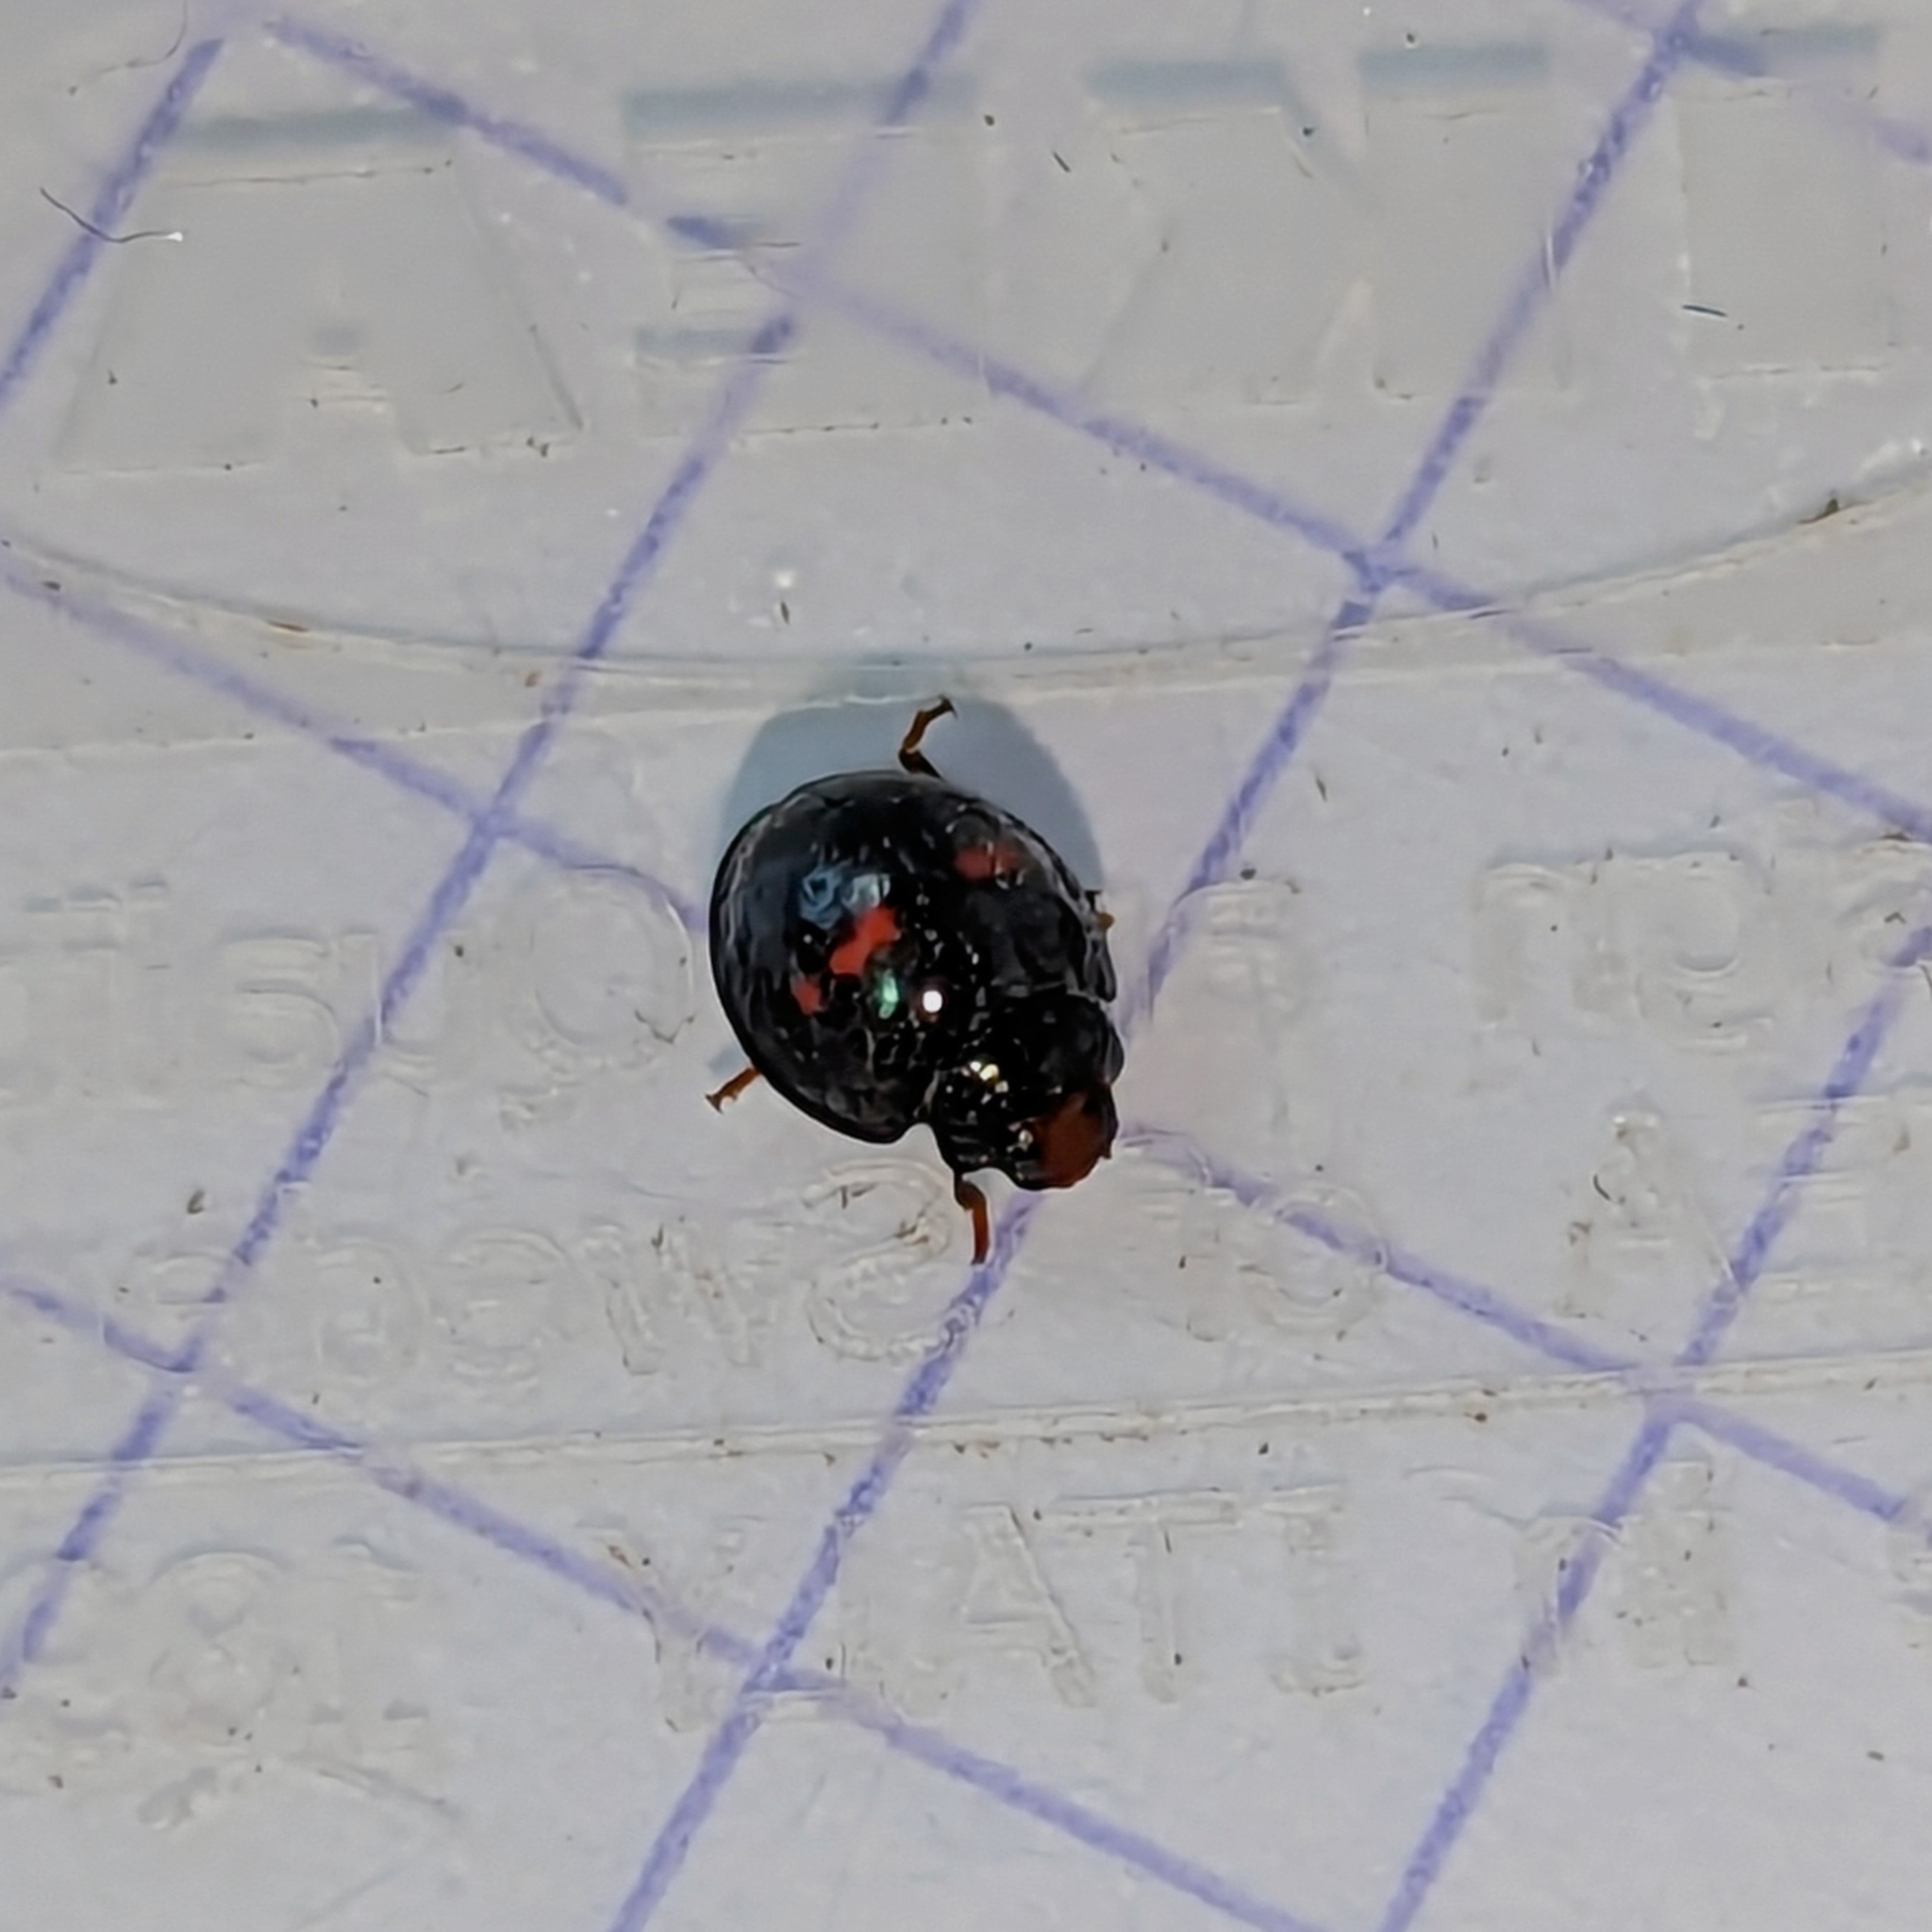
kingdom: Animalia
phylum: Arthropoda
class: Insecta
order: Coleoptera
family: Coccinellidae
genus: Chilocorus
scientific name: Chilocorus bipustulatus
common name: Heather ladybird
